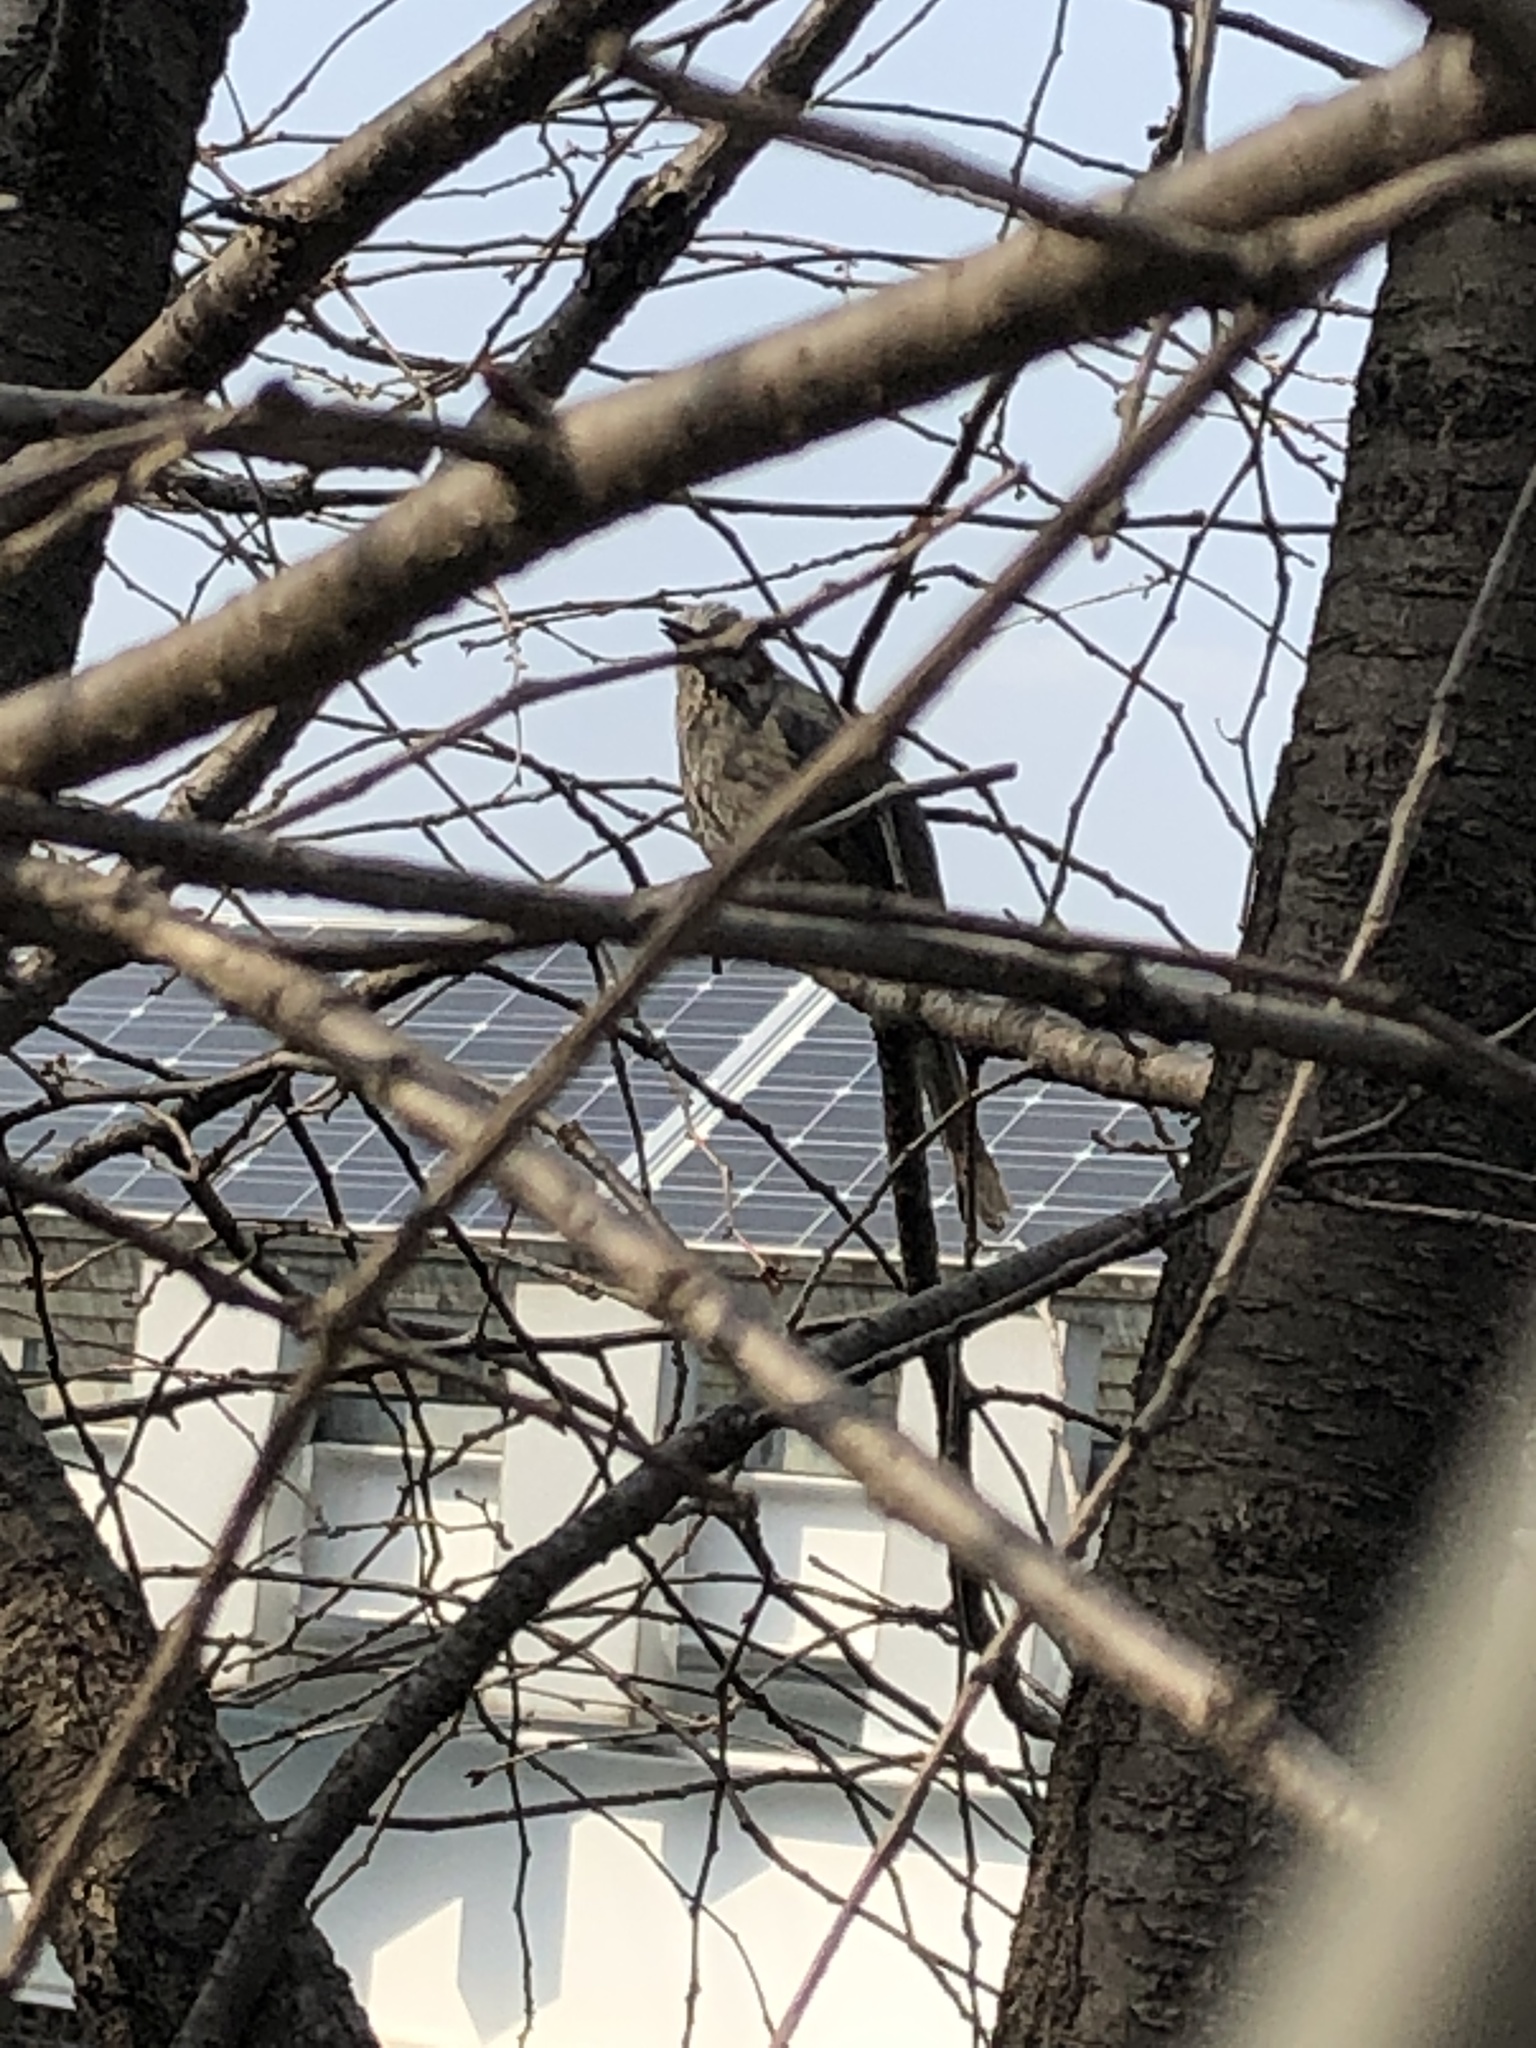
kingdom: Animalia
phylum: Chordata
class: Aves
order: Passeriformes
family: Pycnonotidae
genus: Hypsipetes
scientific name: Hypsipetes amaurotis
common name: Brown-eared bulbul
